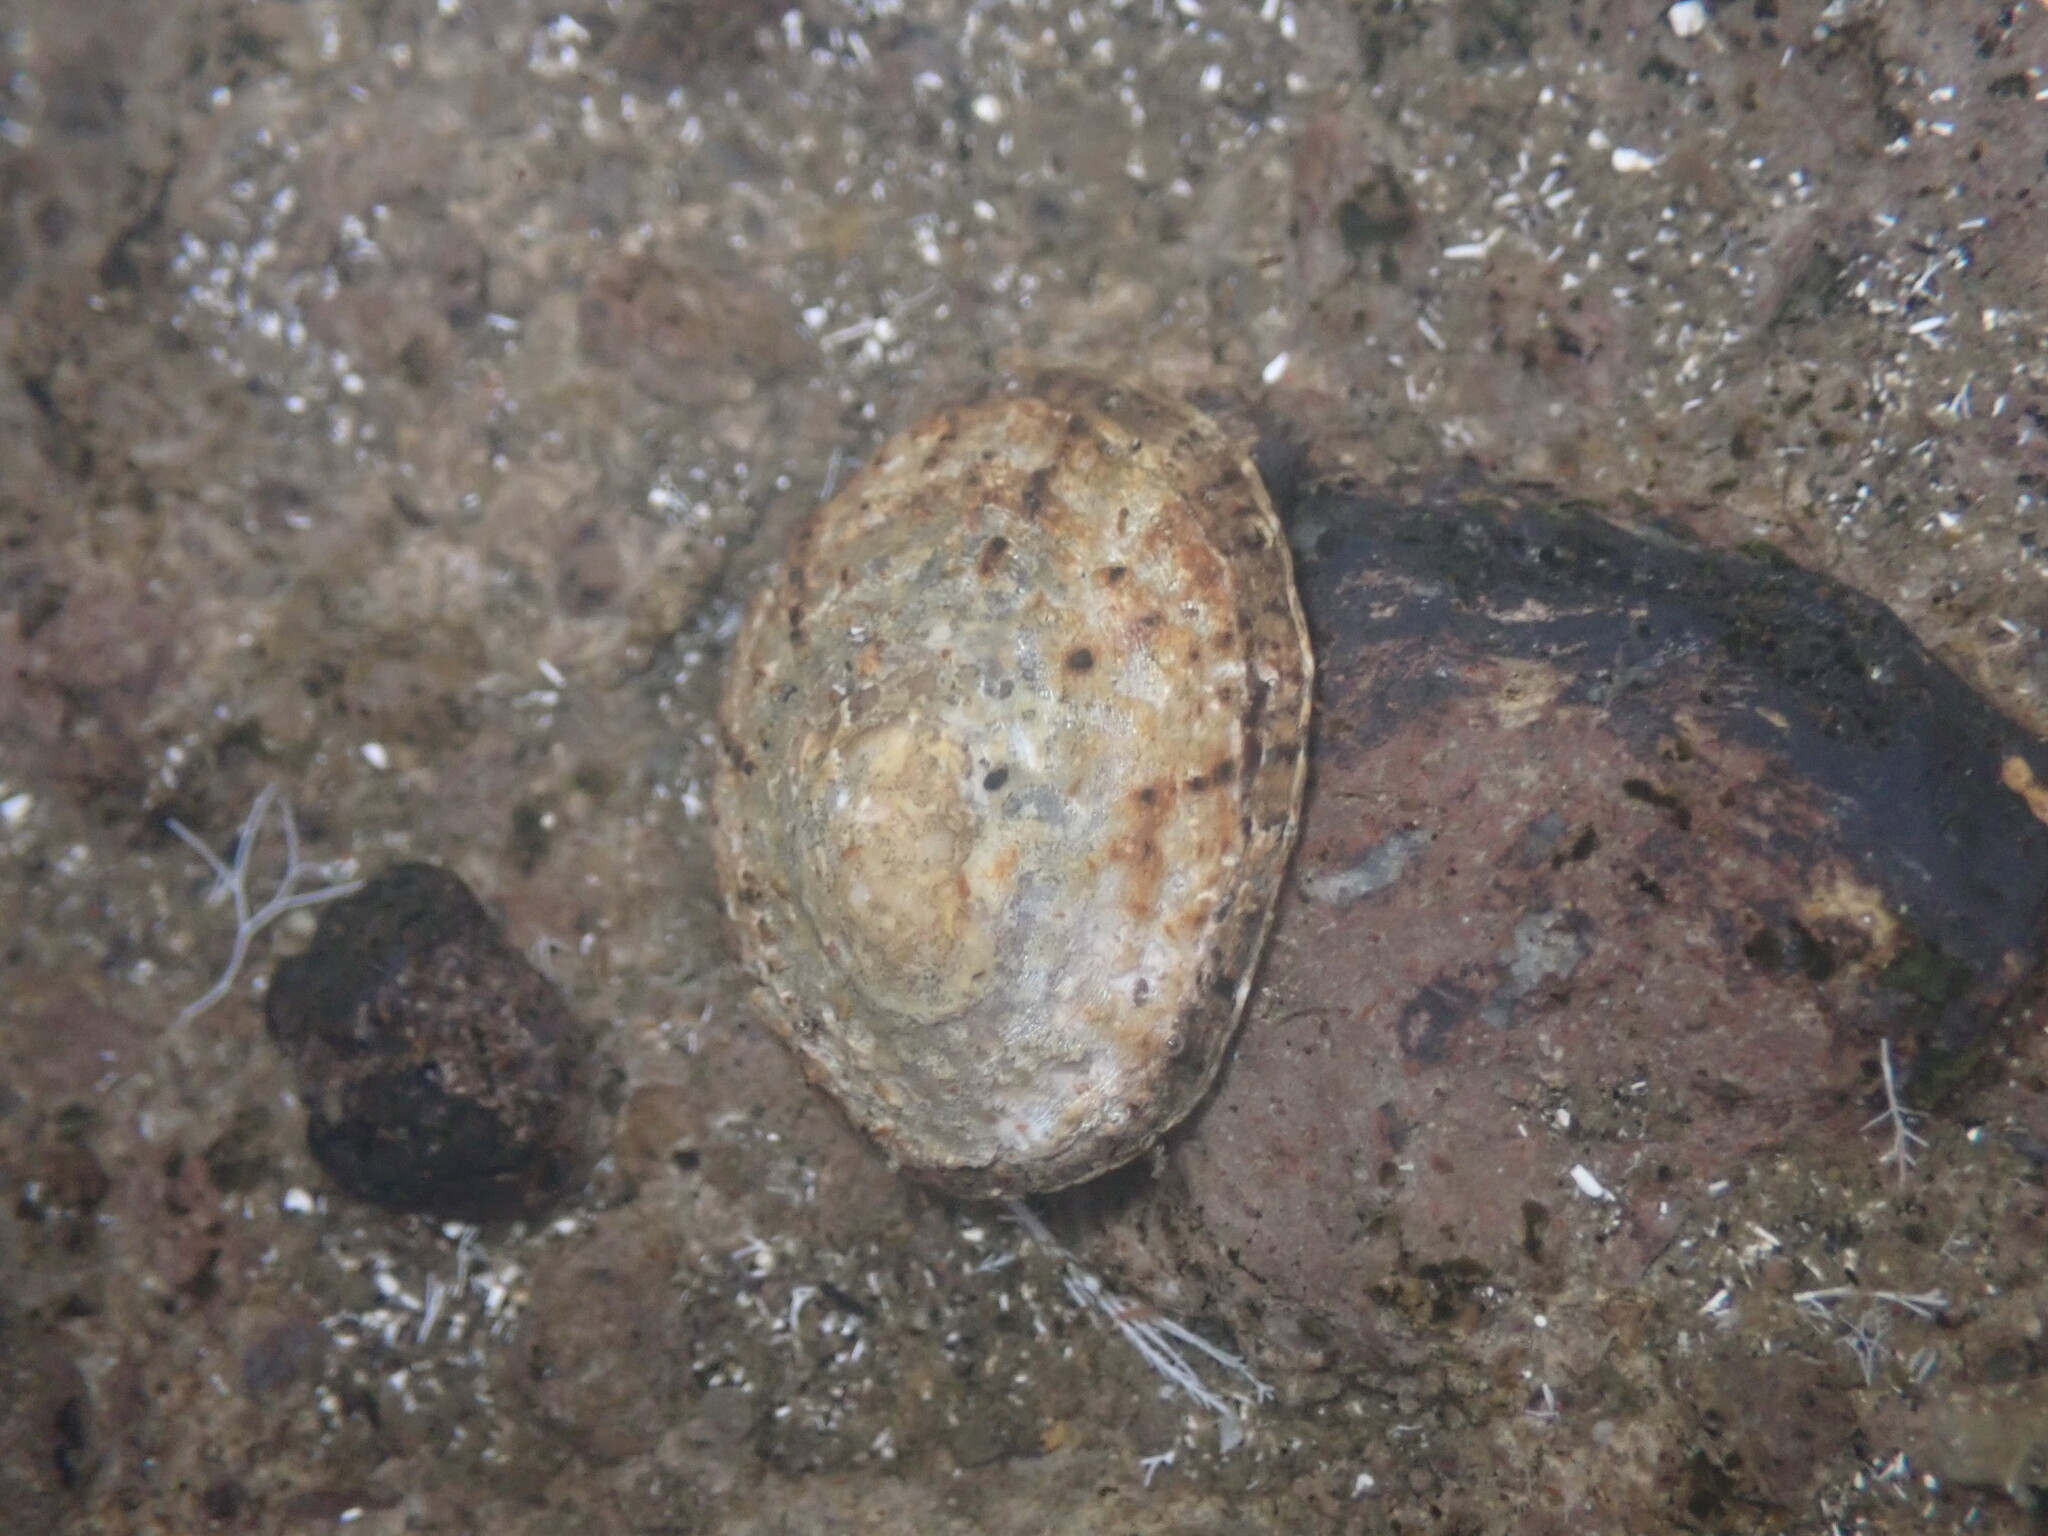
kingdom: Animalia
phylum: Mollusca
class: Gastropoda
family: Patellidae
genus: Patella
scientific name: Patella piperata
